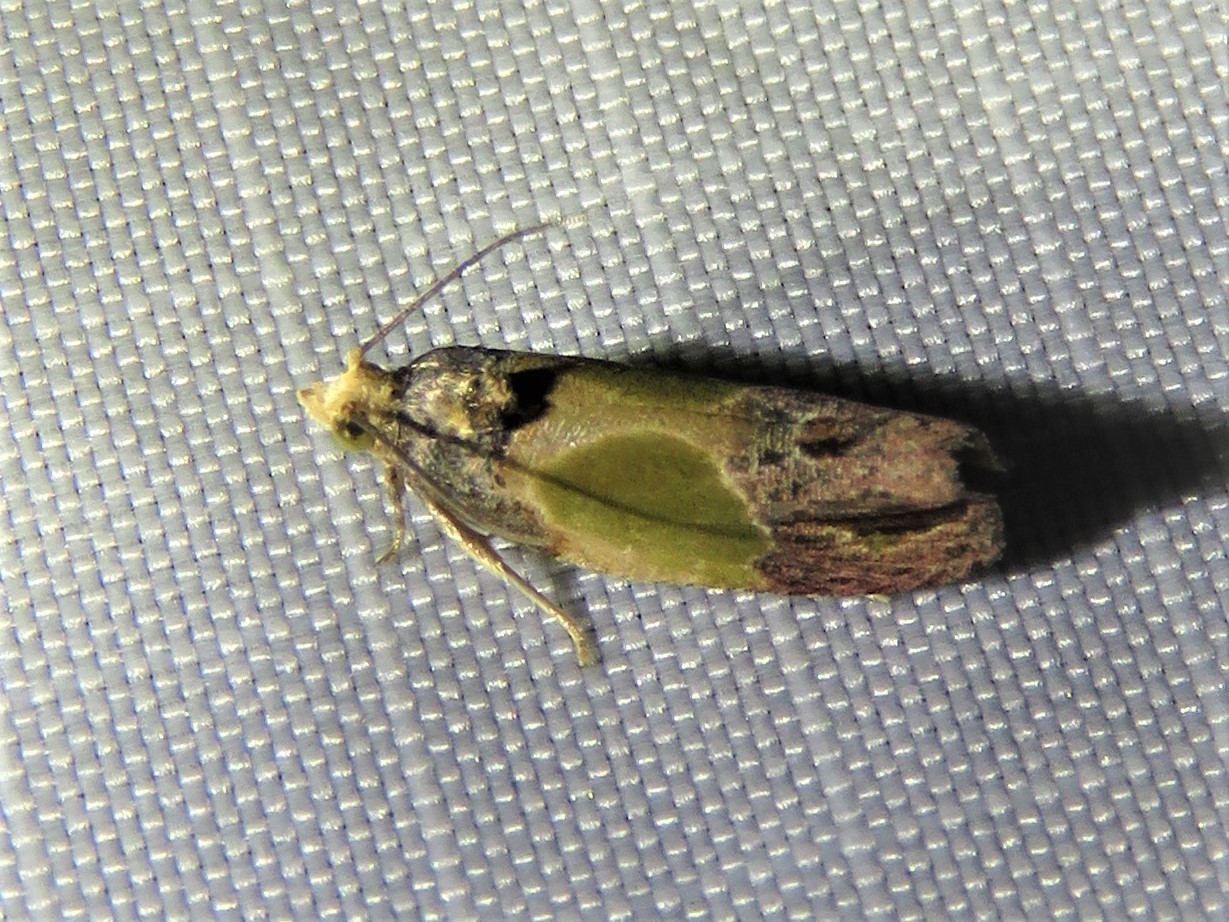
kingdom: Animalia
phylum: Arthropoda
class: Insecta
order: Lepidoptera
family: Tortricidae
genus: Eumarozia
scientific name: Eumarozia malachitana
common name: Sculptured moth
